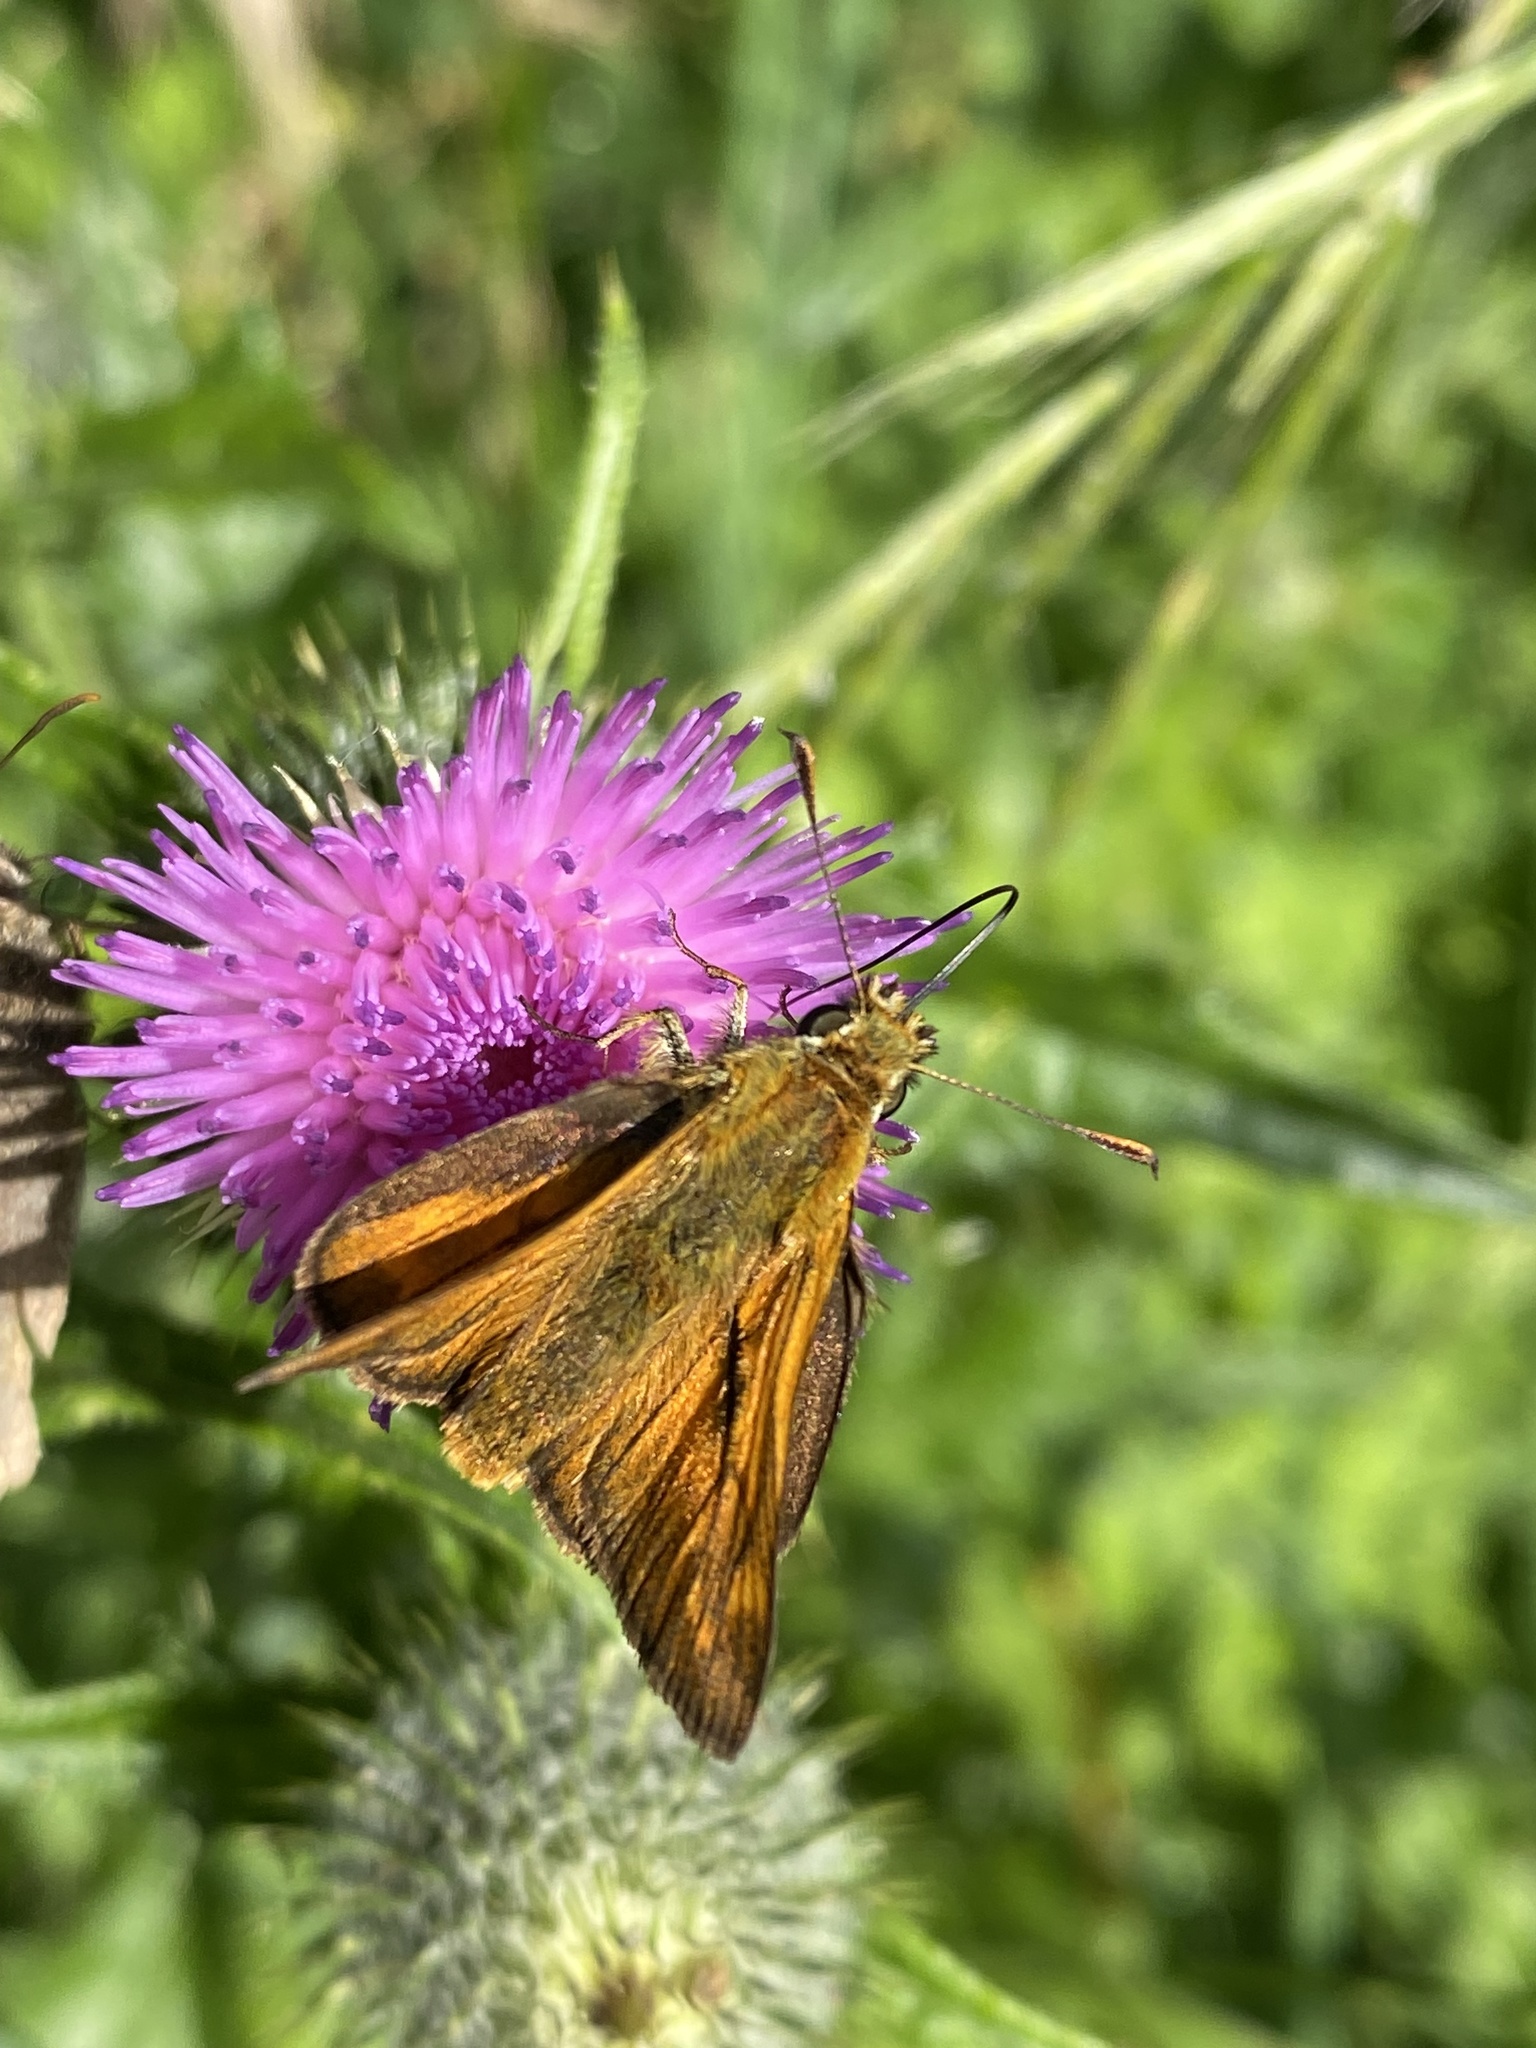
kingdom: Animalia
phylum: Arthropoda
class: Insecta
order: Lepidoptera
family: Hesperiidae
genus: Ochlodes
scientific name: Ochlodes venata
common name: Large skipper
